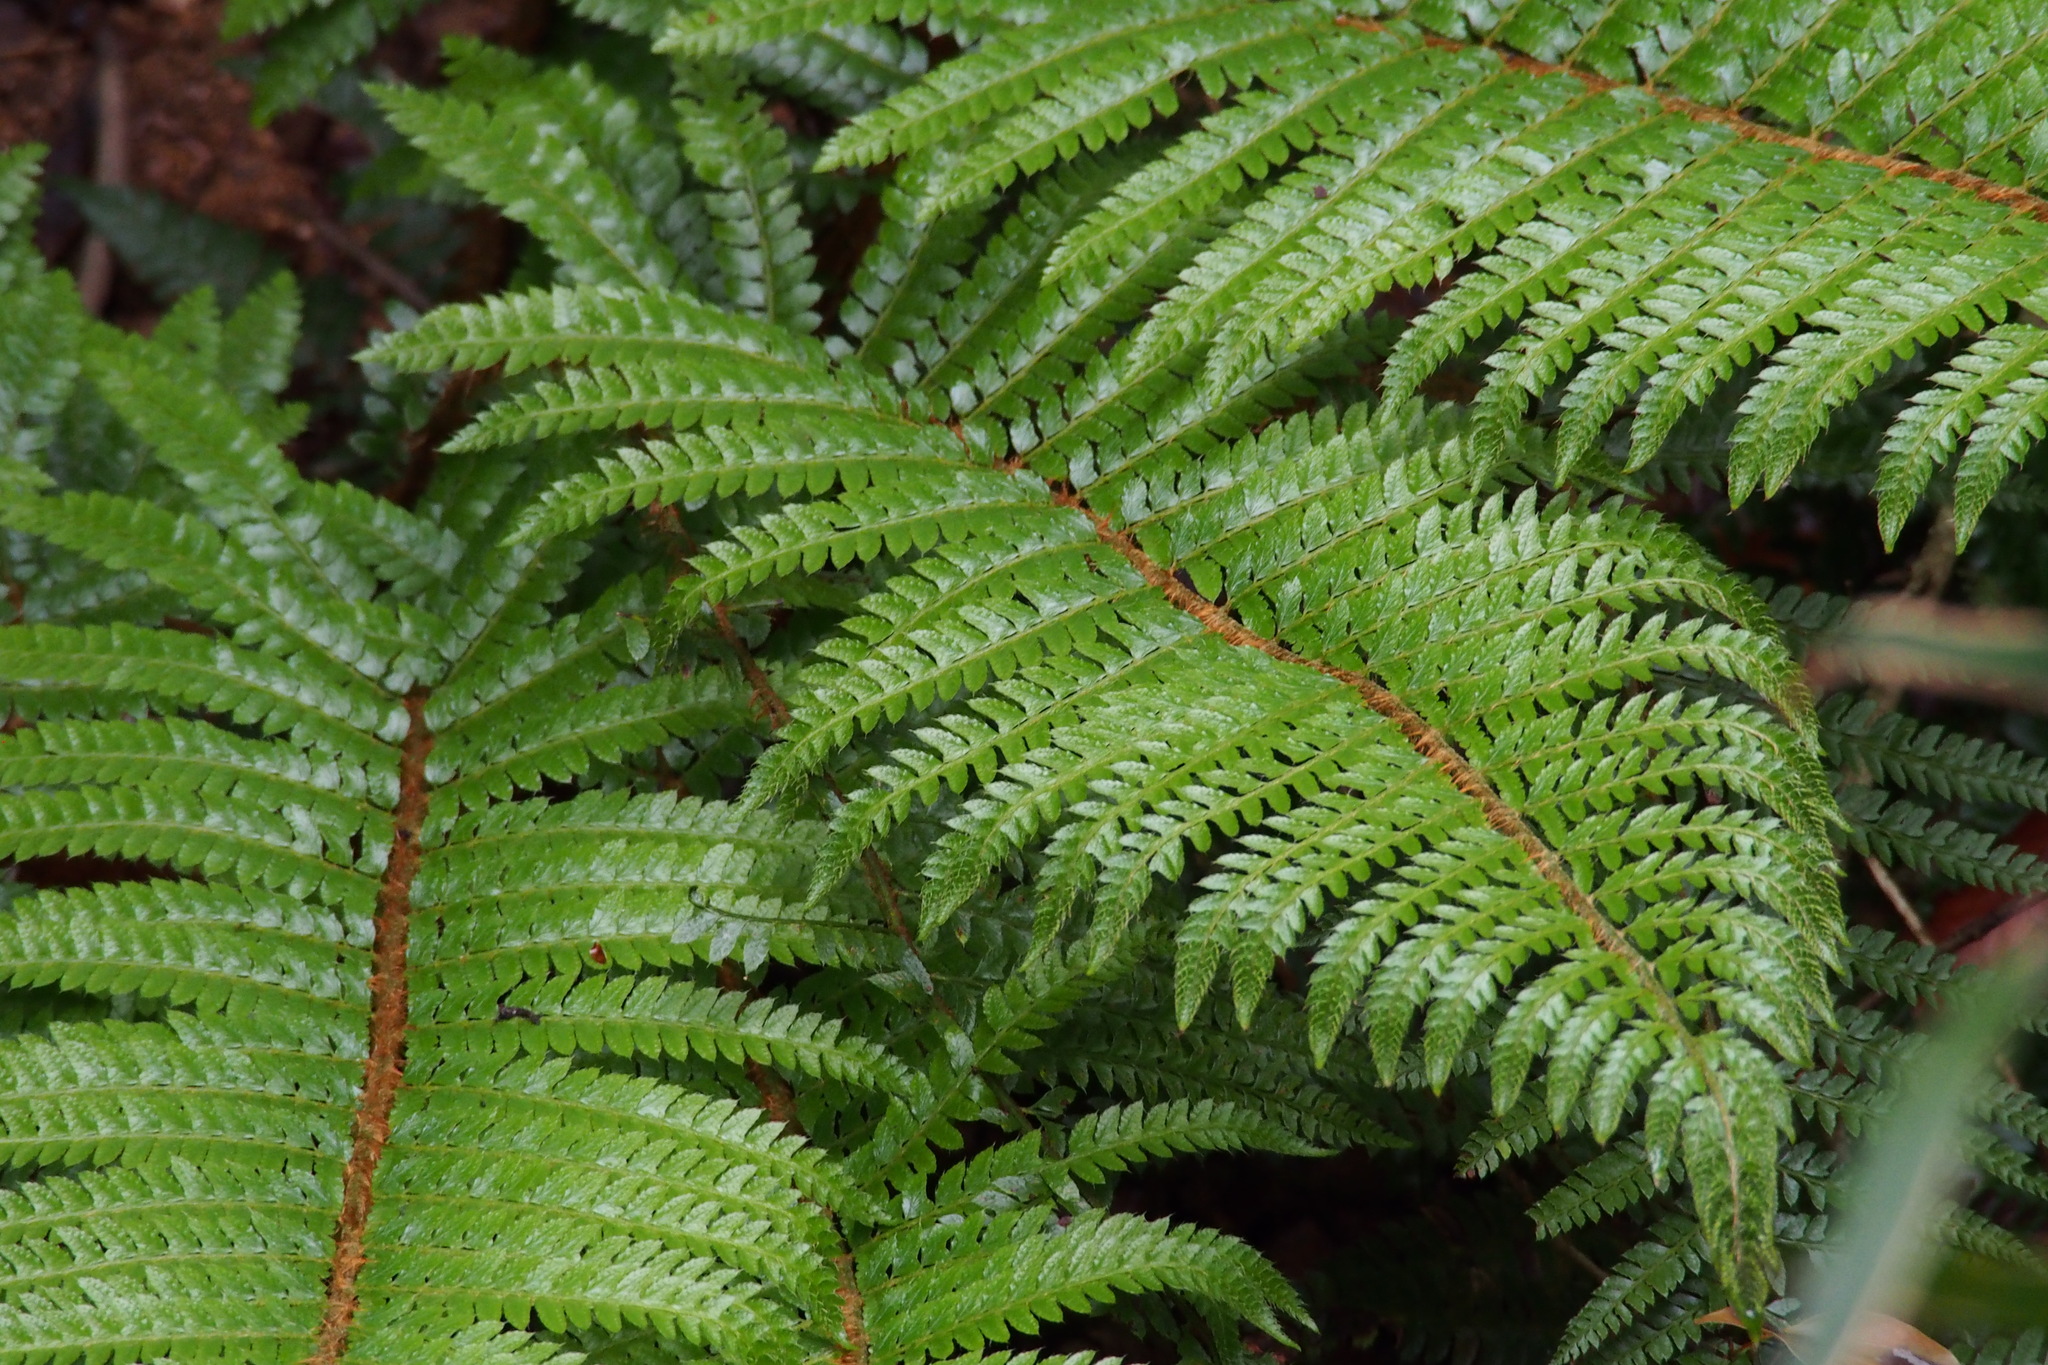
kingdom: Plantae
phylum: Tracheophyta
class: Polypodiopsida
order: Polypodiales
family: Dryopteridaceae
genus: Polystichum
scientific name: Polystichum luctuosum
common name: Korean rockfern
